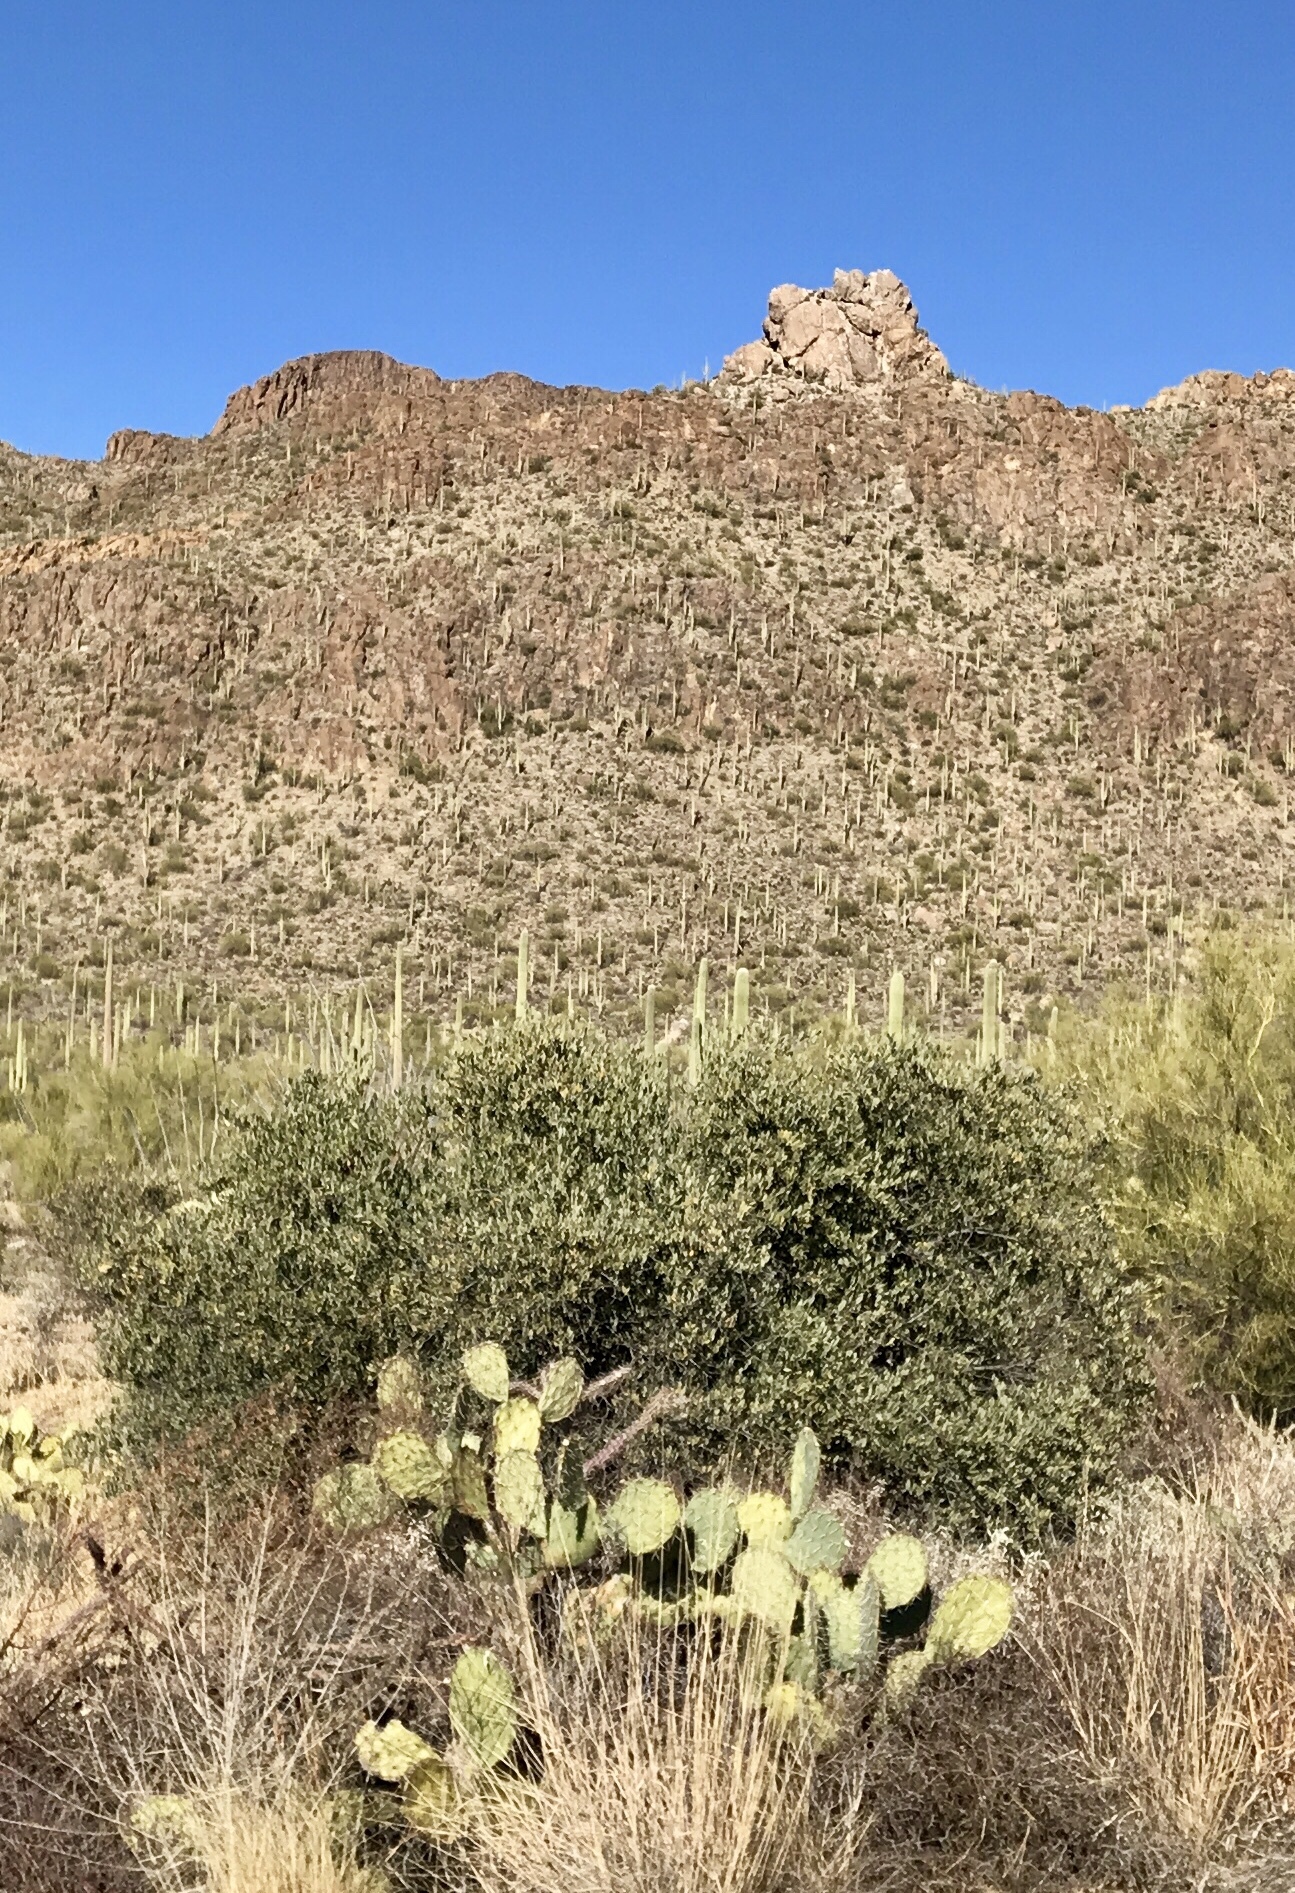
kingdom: Plantae
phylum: Tracheophyta
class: Magnoliopsida
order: Caryophyllales
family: Simmondsiaceae
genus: Simmondsia
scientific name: Simmondsia chinensis
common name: Jojoba
